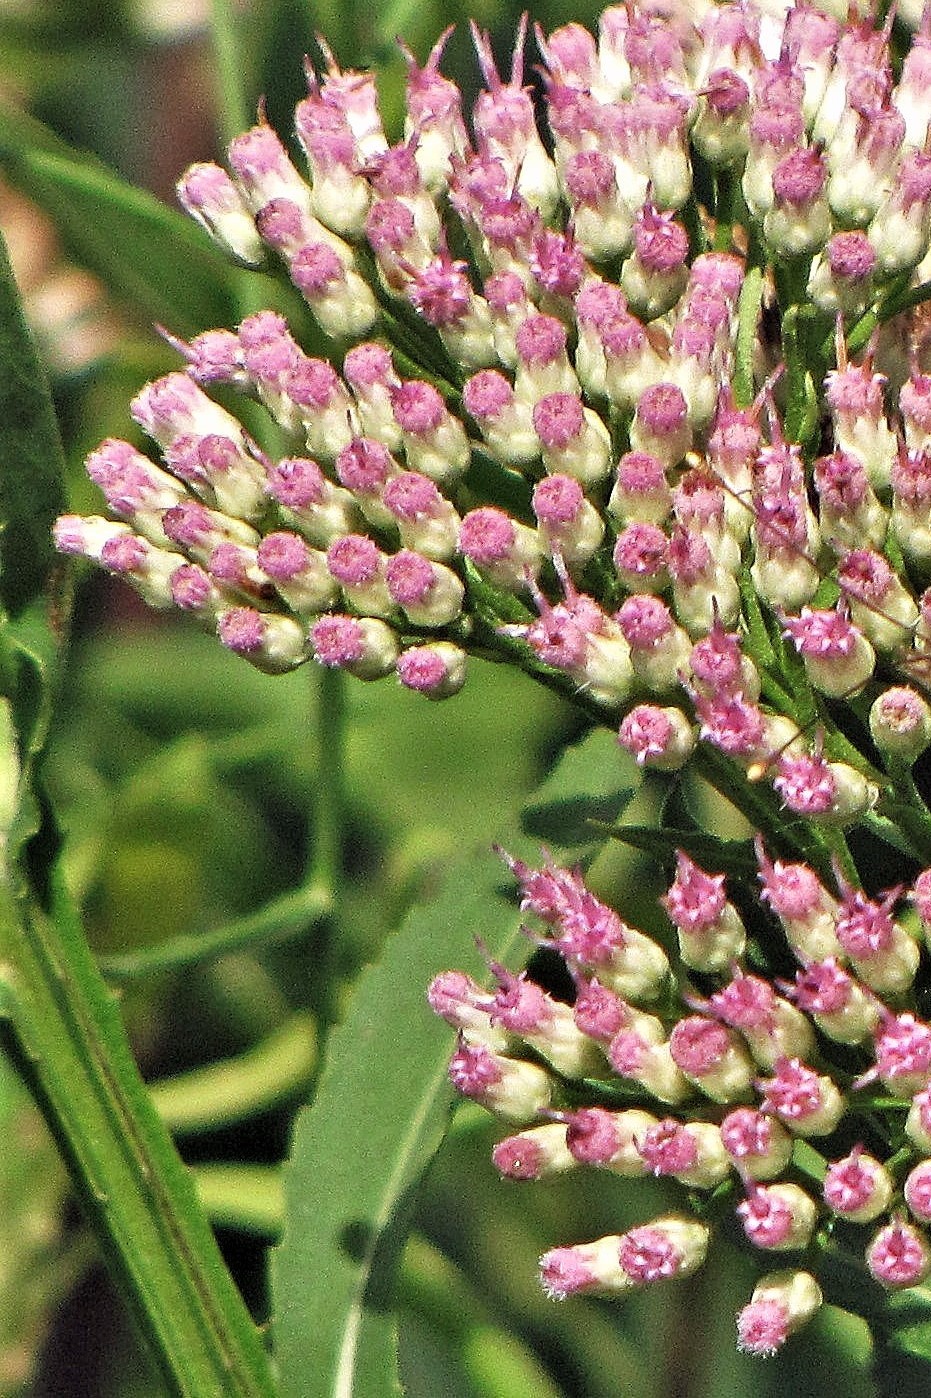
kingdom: Plantae
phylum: Tracheophyta
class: Magnoliopsida
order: Asterales
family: Asteraceae
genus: Pluchea
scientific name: Pluchea microcephala
